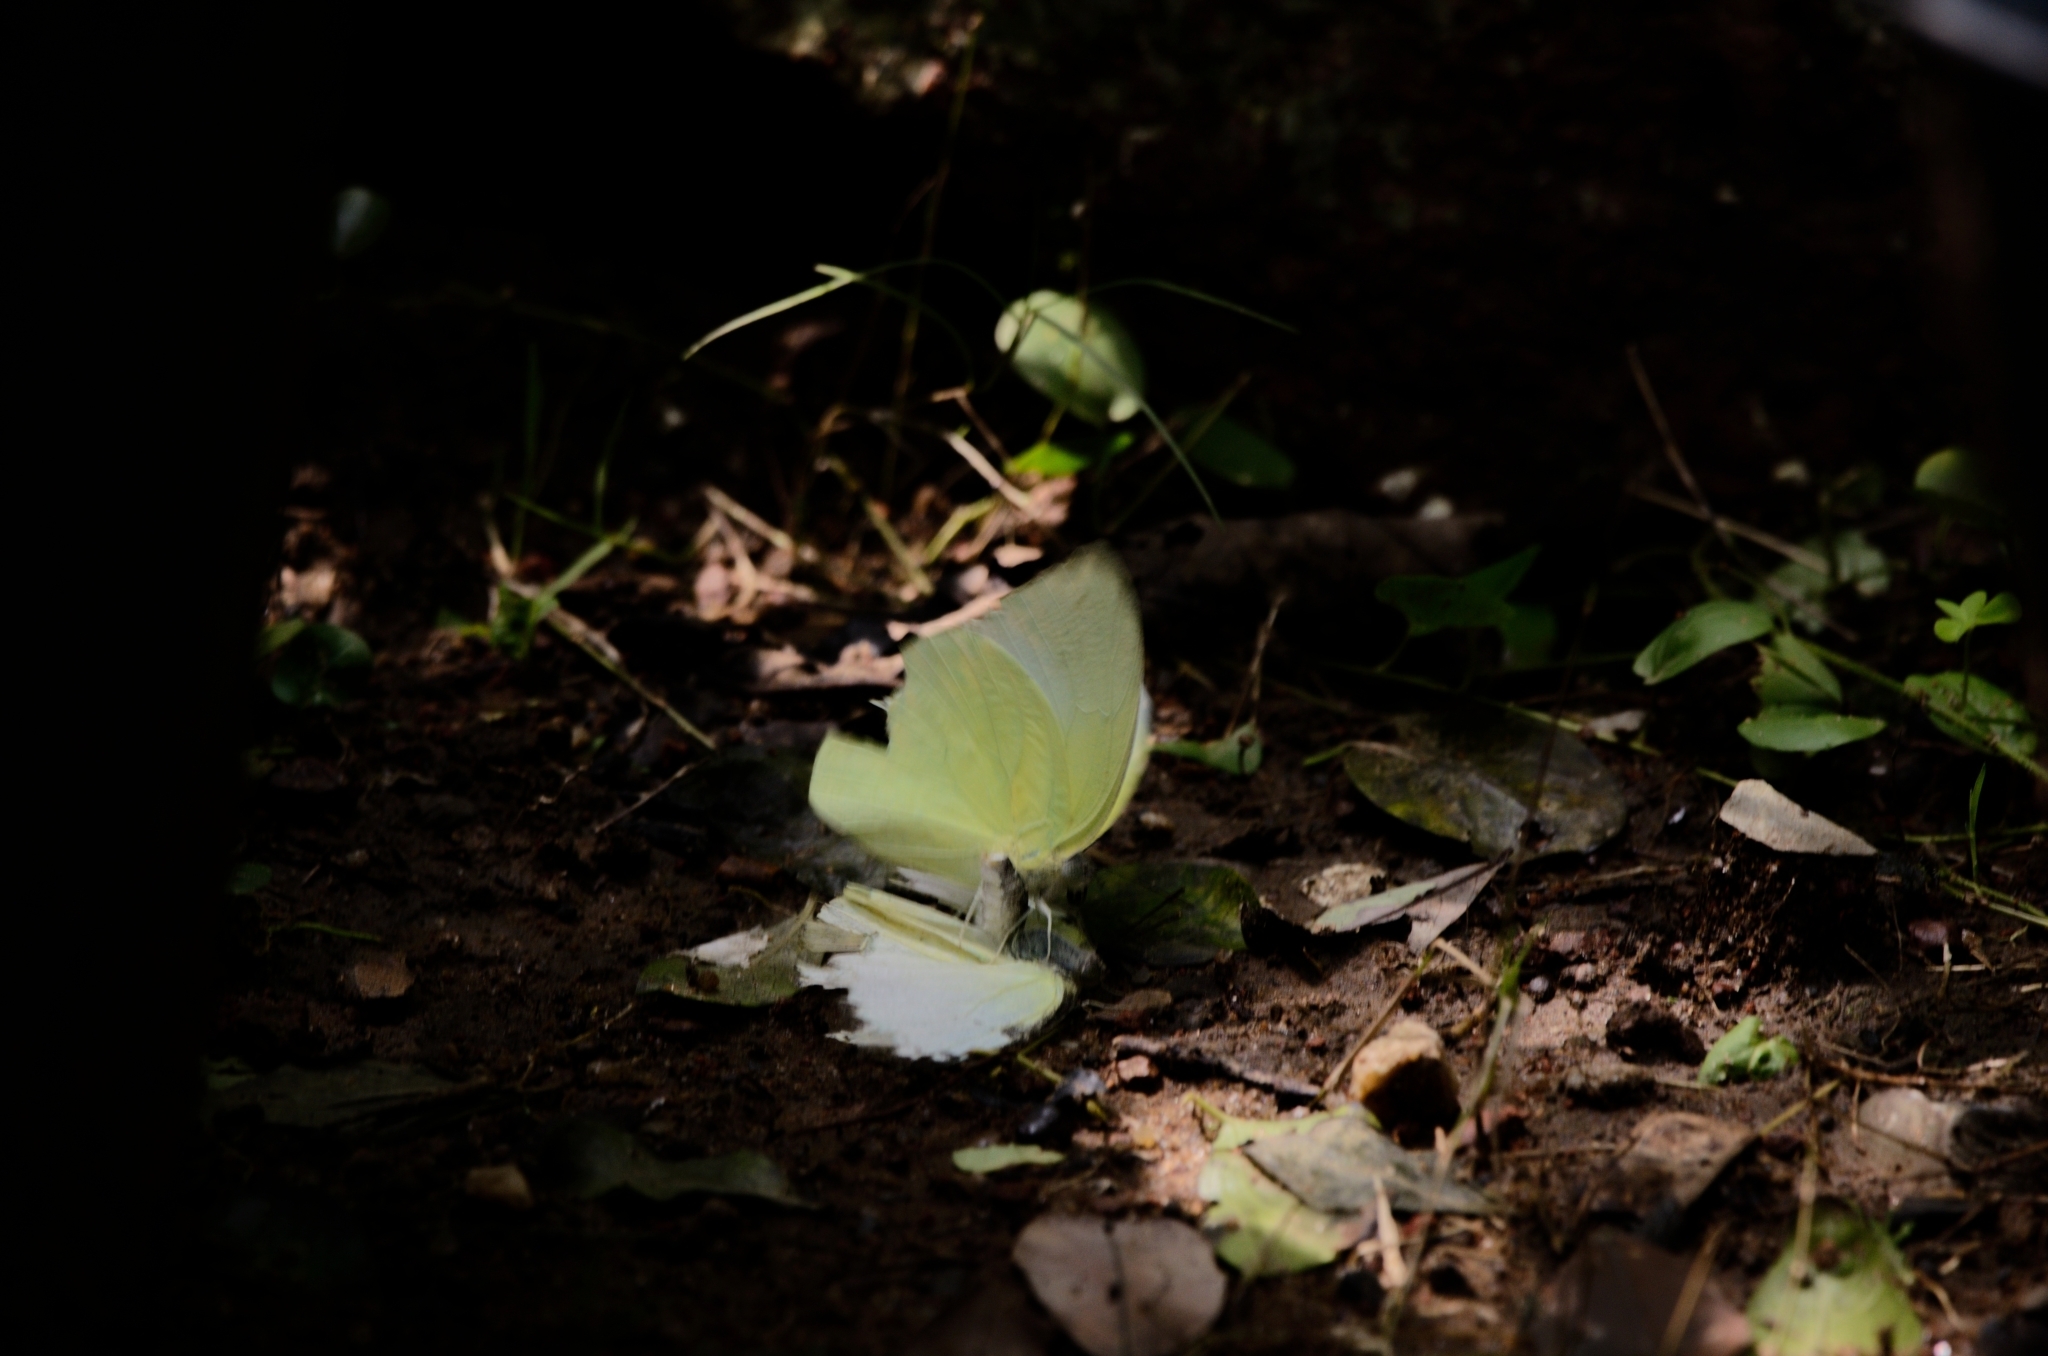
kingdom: Animalia
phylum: Arthropoda
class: Insecta
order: Lepidoptera
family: Pieridae
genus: Catopsilia
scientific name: Catopsilia pomona
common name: Common emigrant
